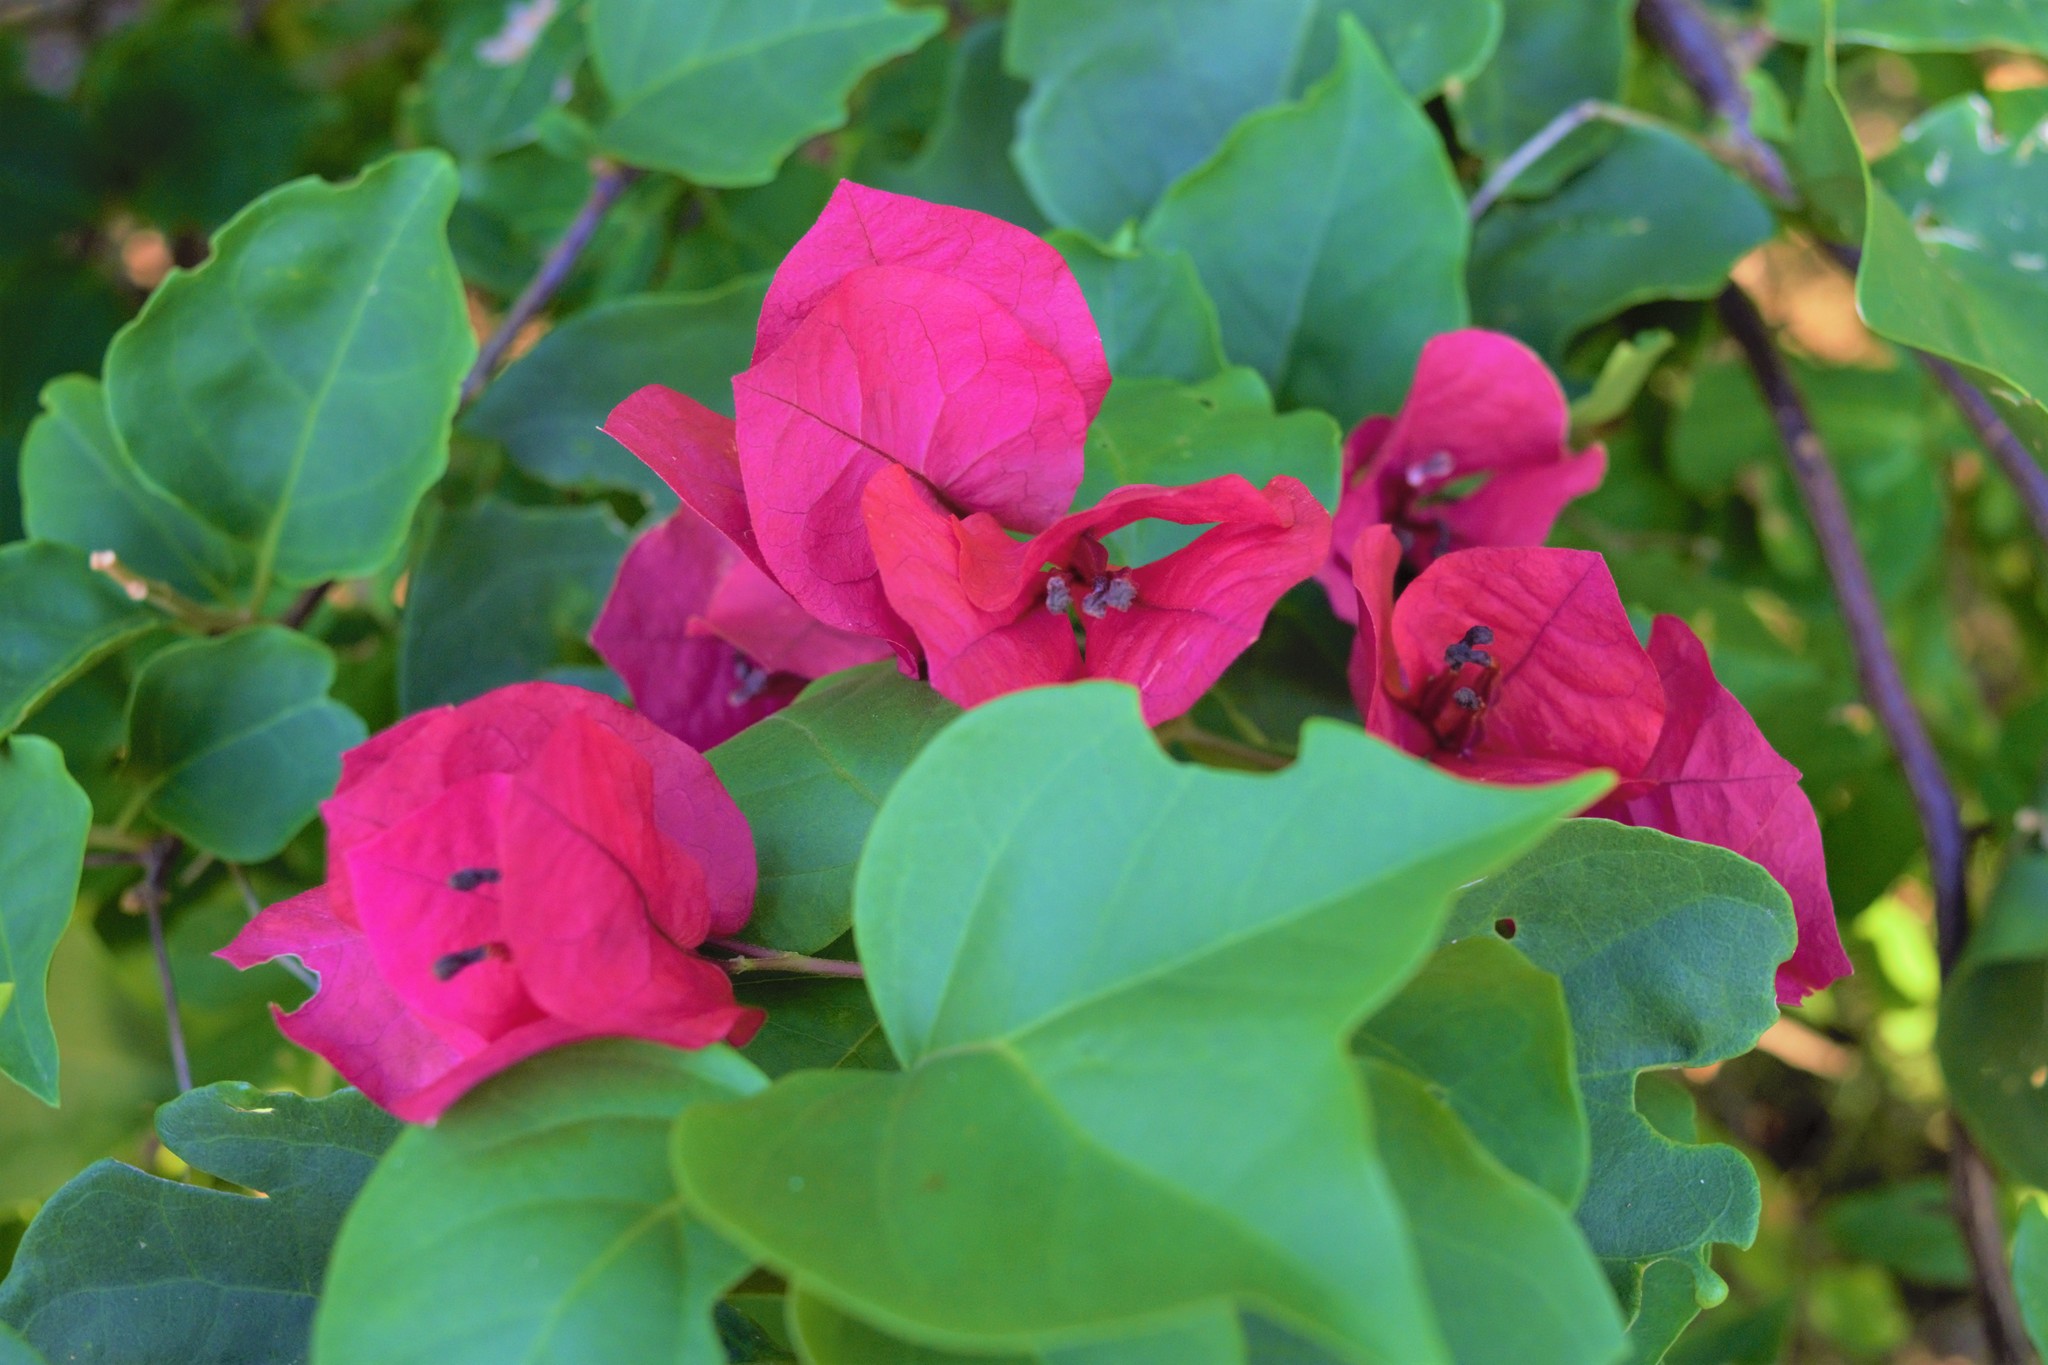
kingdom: Plantae
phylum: Tracheophyta
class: Magnoliopsida
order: Caryophyllales
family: Nyctaginaceae
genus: Bougainvillea
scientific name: Bougainvillea spectabilis
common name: Great bougainvillea
